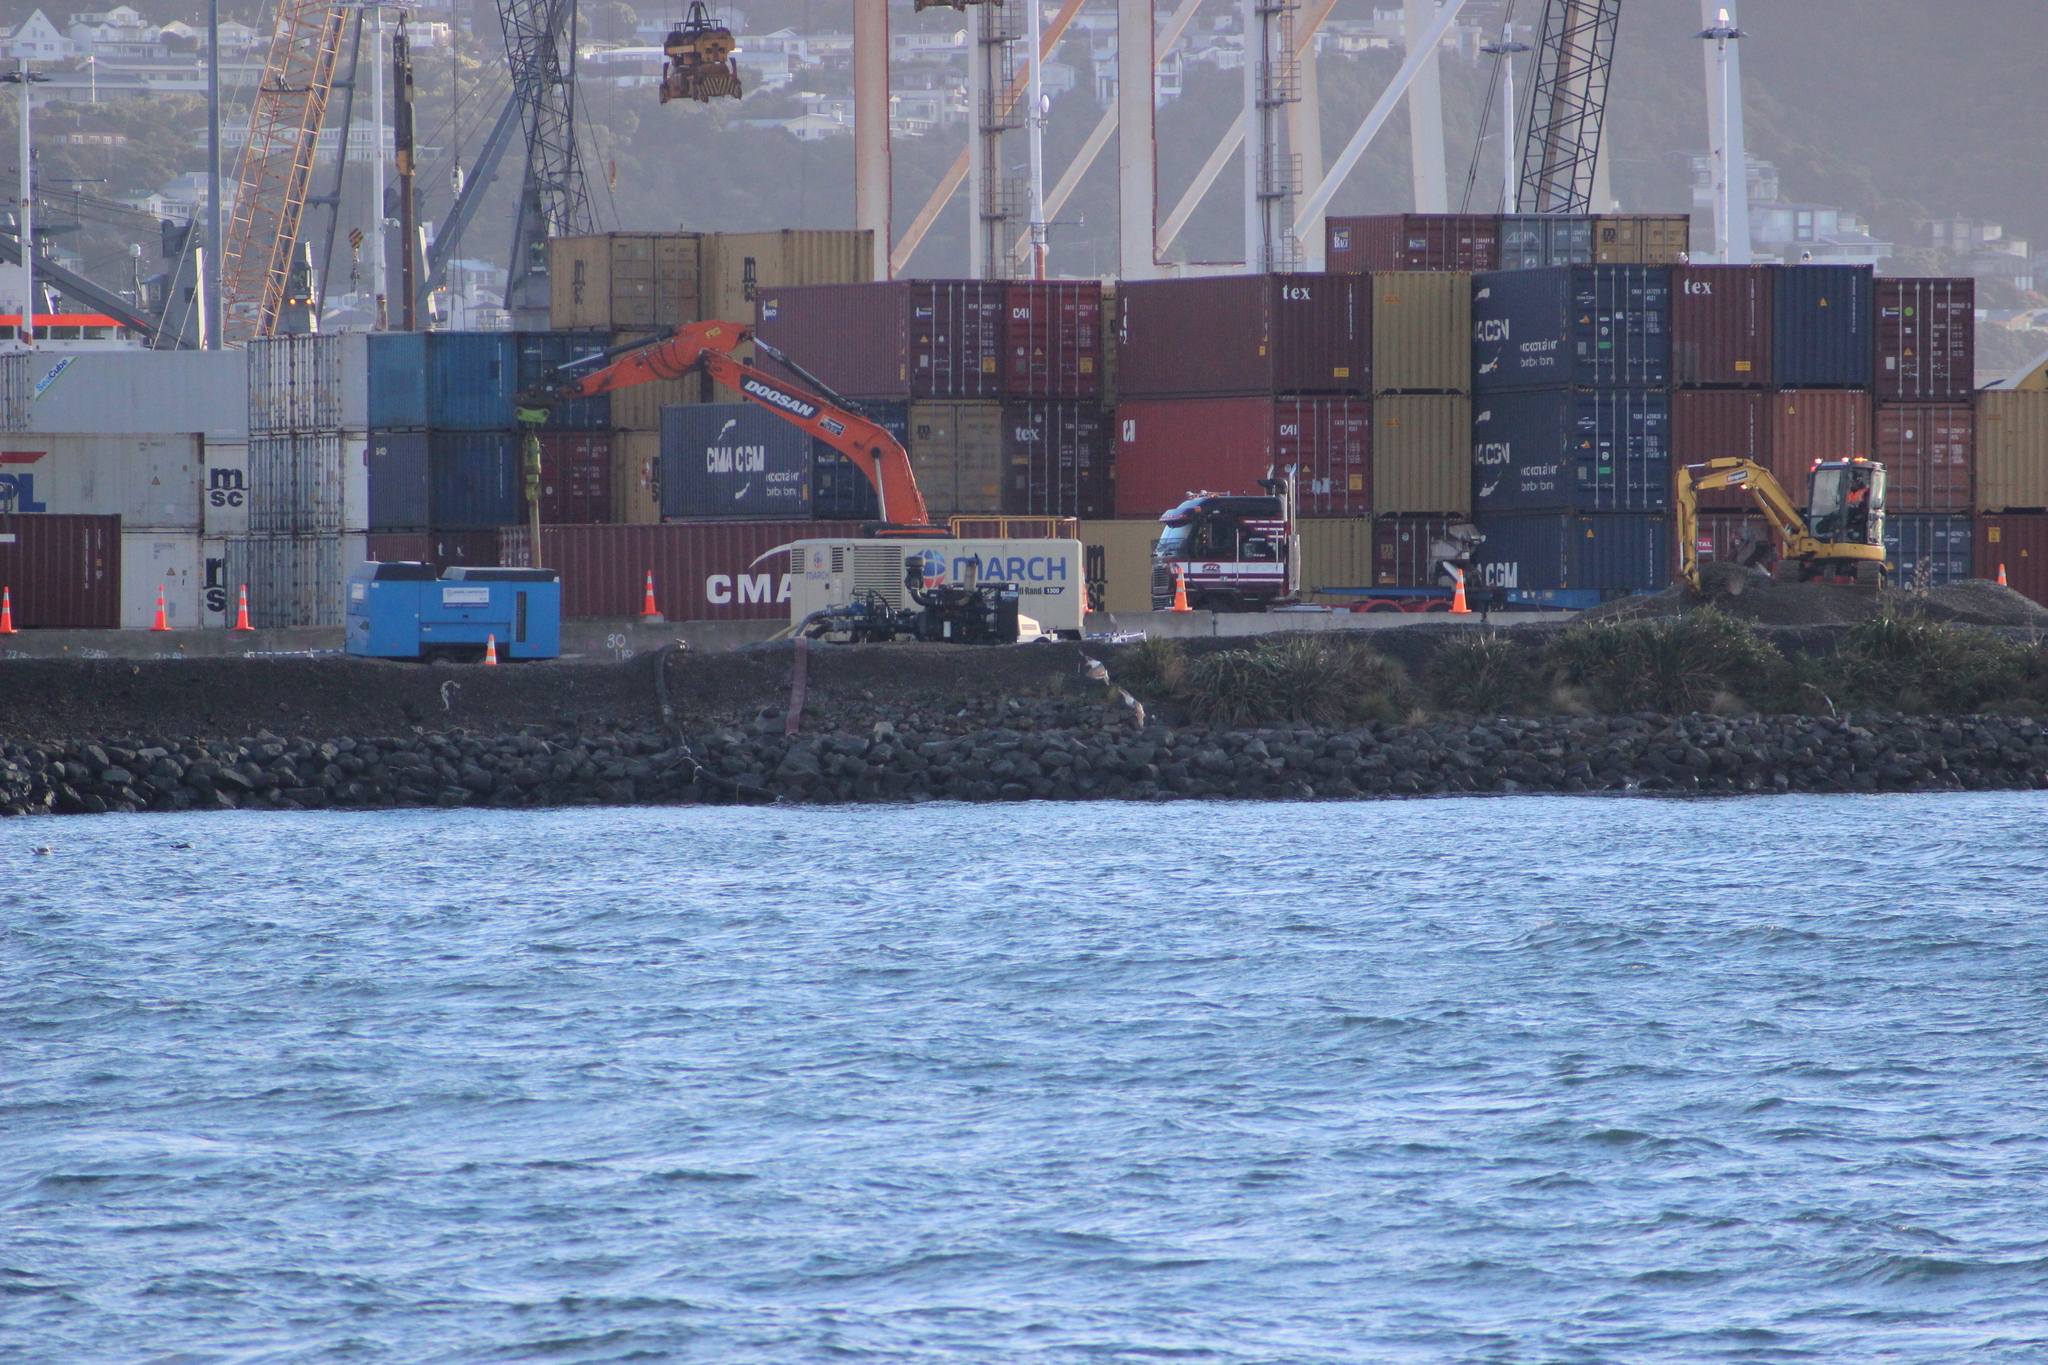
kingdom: Animalia
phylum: Chordata
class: Aves
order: Charadriiformes
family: Laridae
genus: Larus
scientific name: Larus dominicanus
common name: Kelp gull
